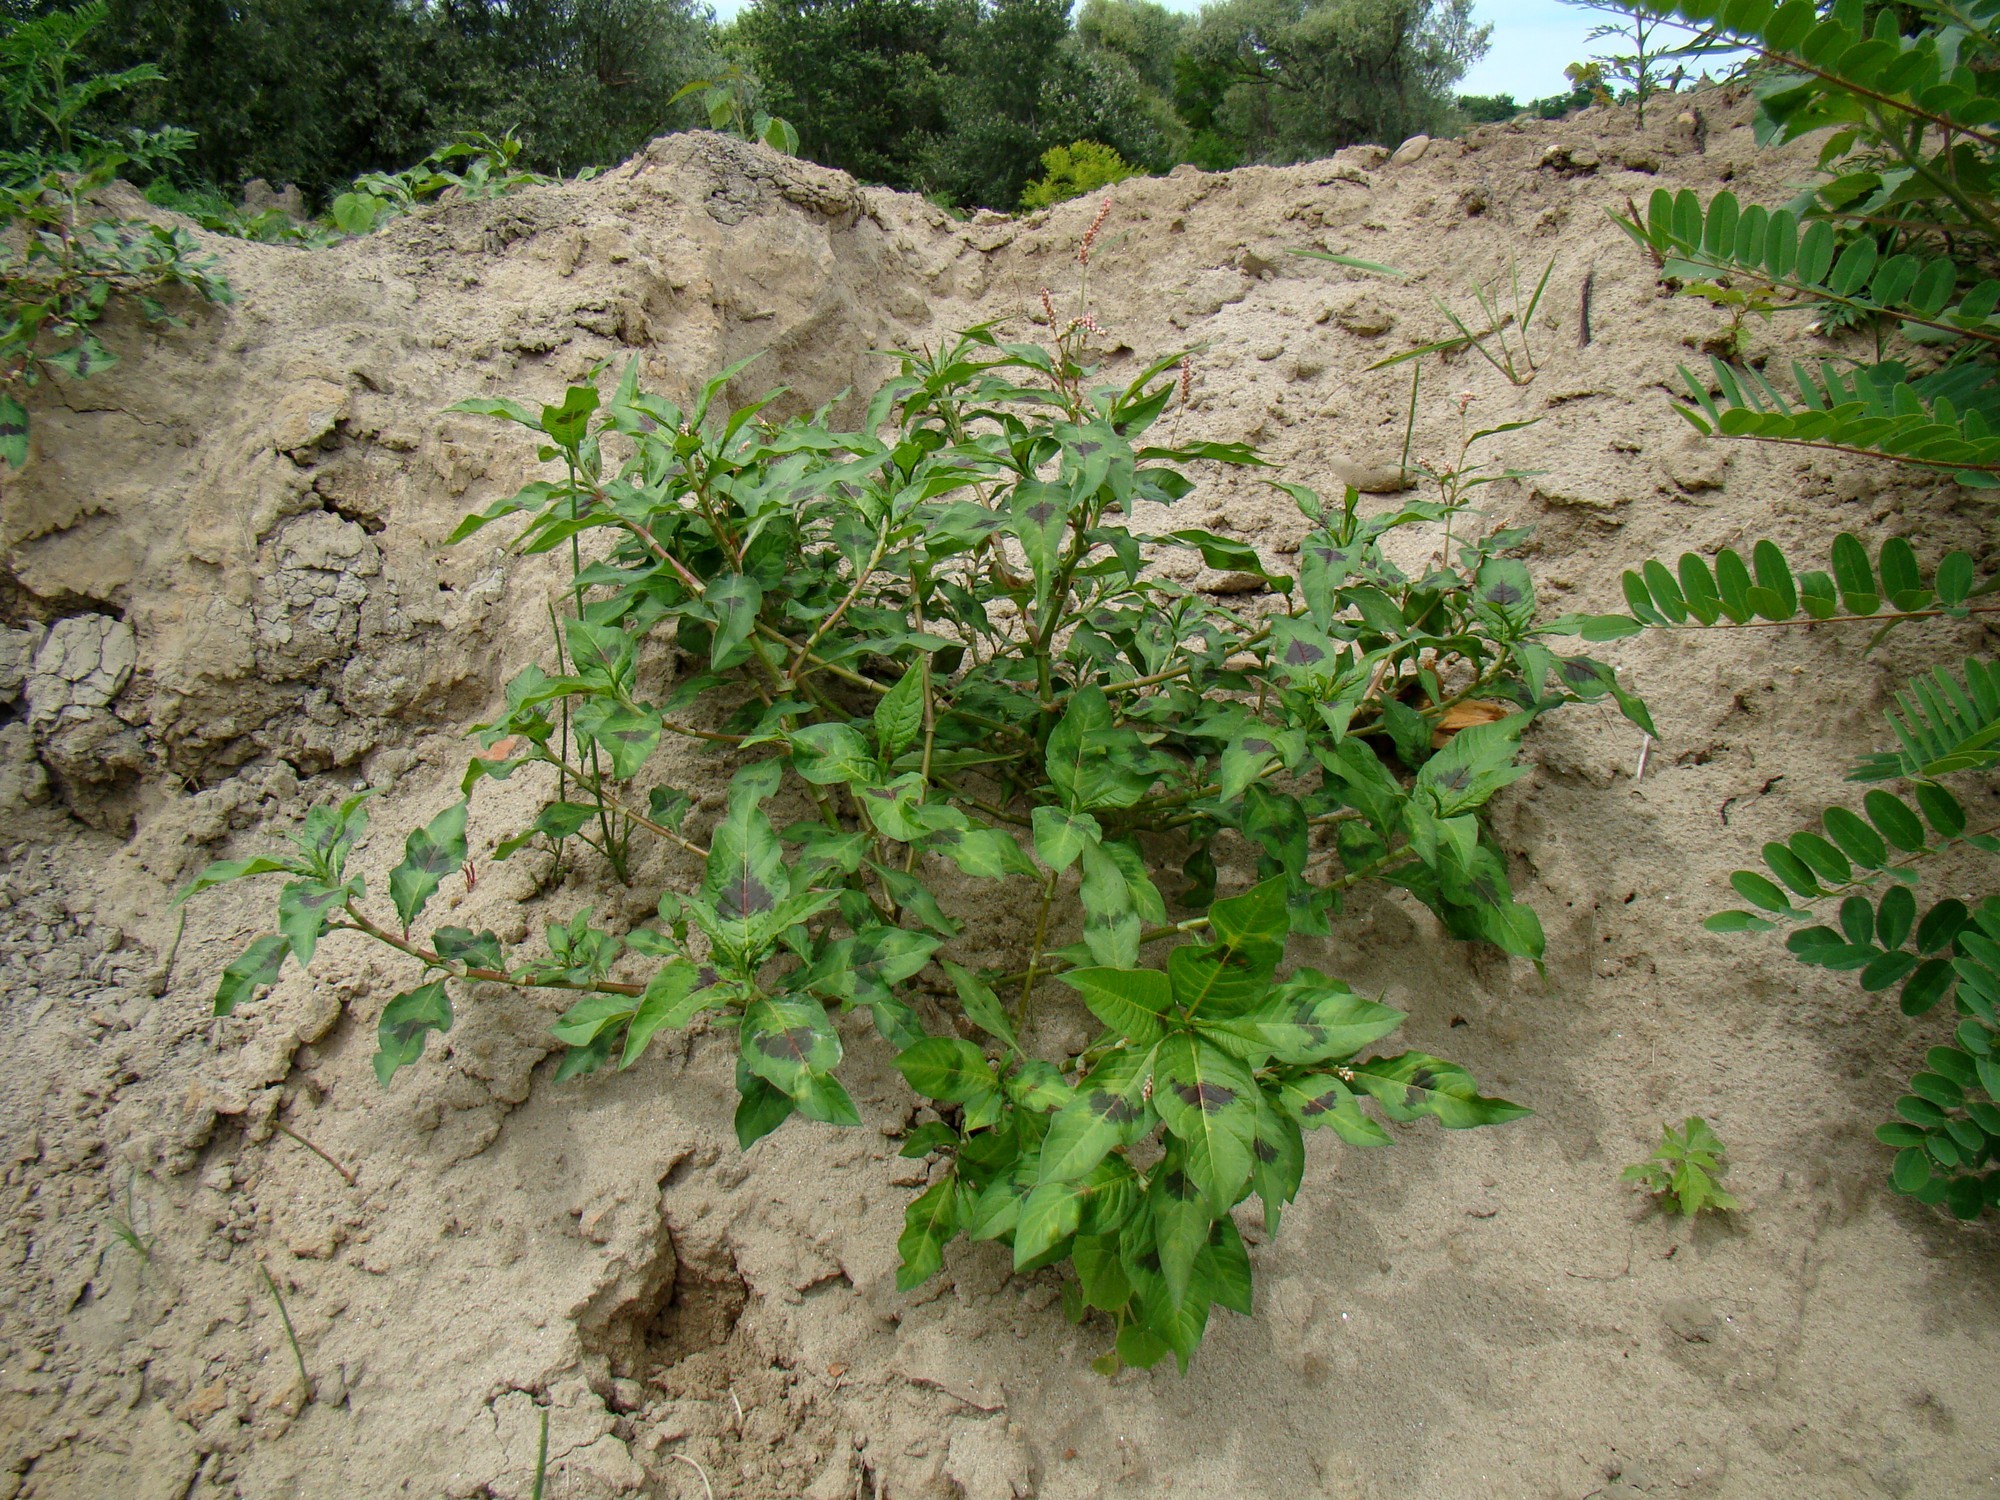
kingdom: Plantae
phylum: Tracheophyta
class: Magnoliopsida
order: Caryophyllales
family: Polygonaceae
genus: Persicaria
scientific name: Persicaria maculosa
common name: Redshank
